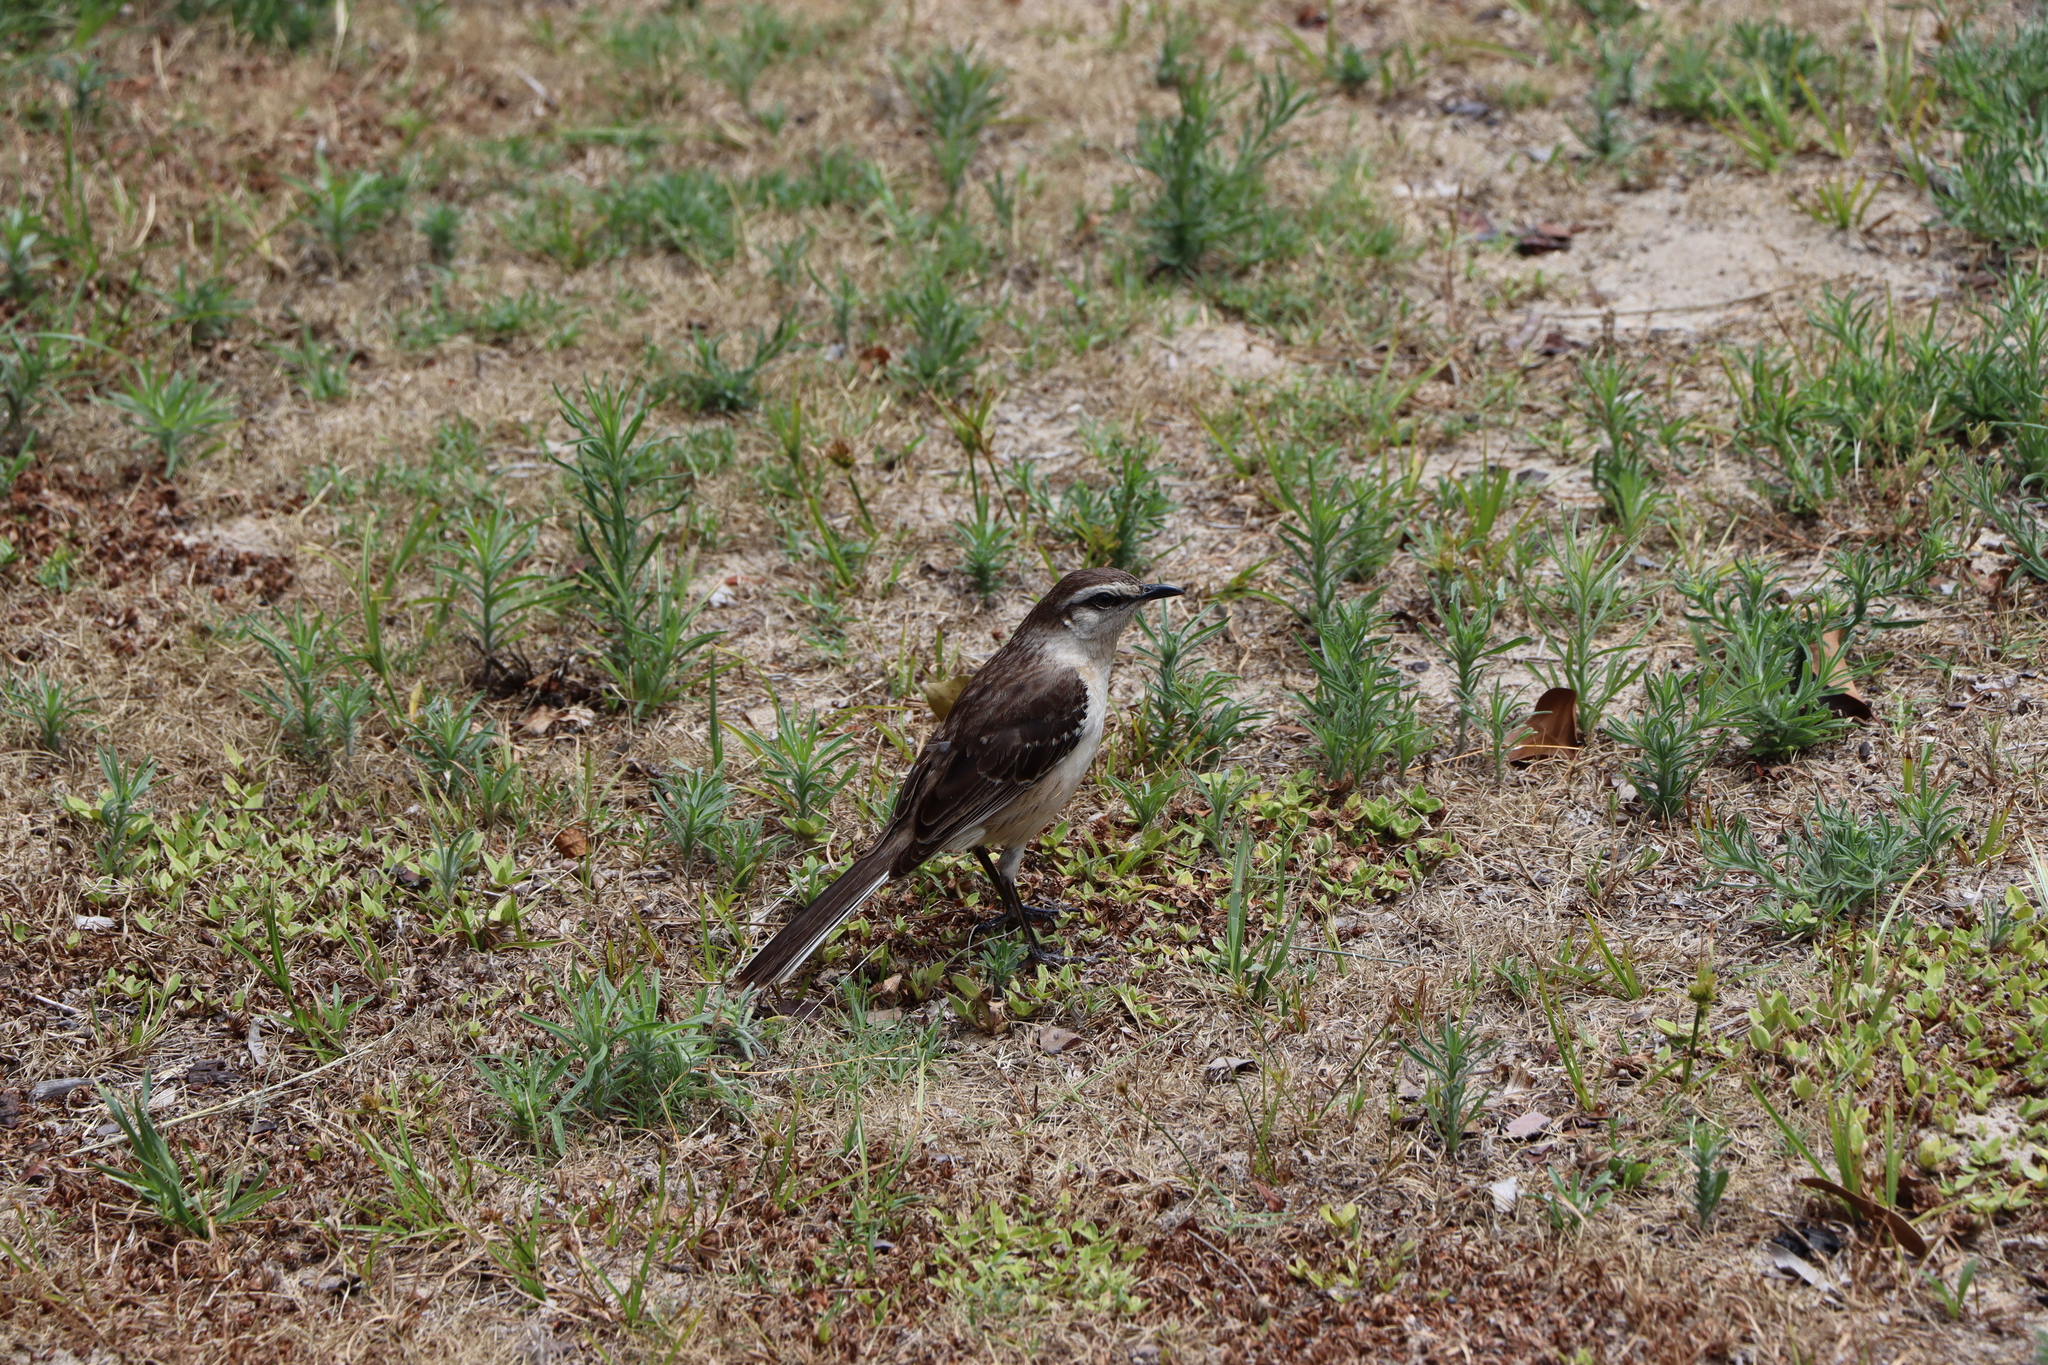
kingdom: Animalia
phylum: Chordata
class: Aves
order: Passeriformes
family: Mimidae
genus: Mimus
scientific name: Mimus saturninus
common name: Chalk-browed mockingbird
